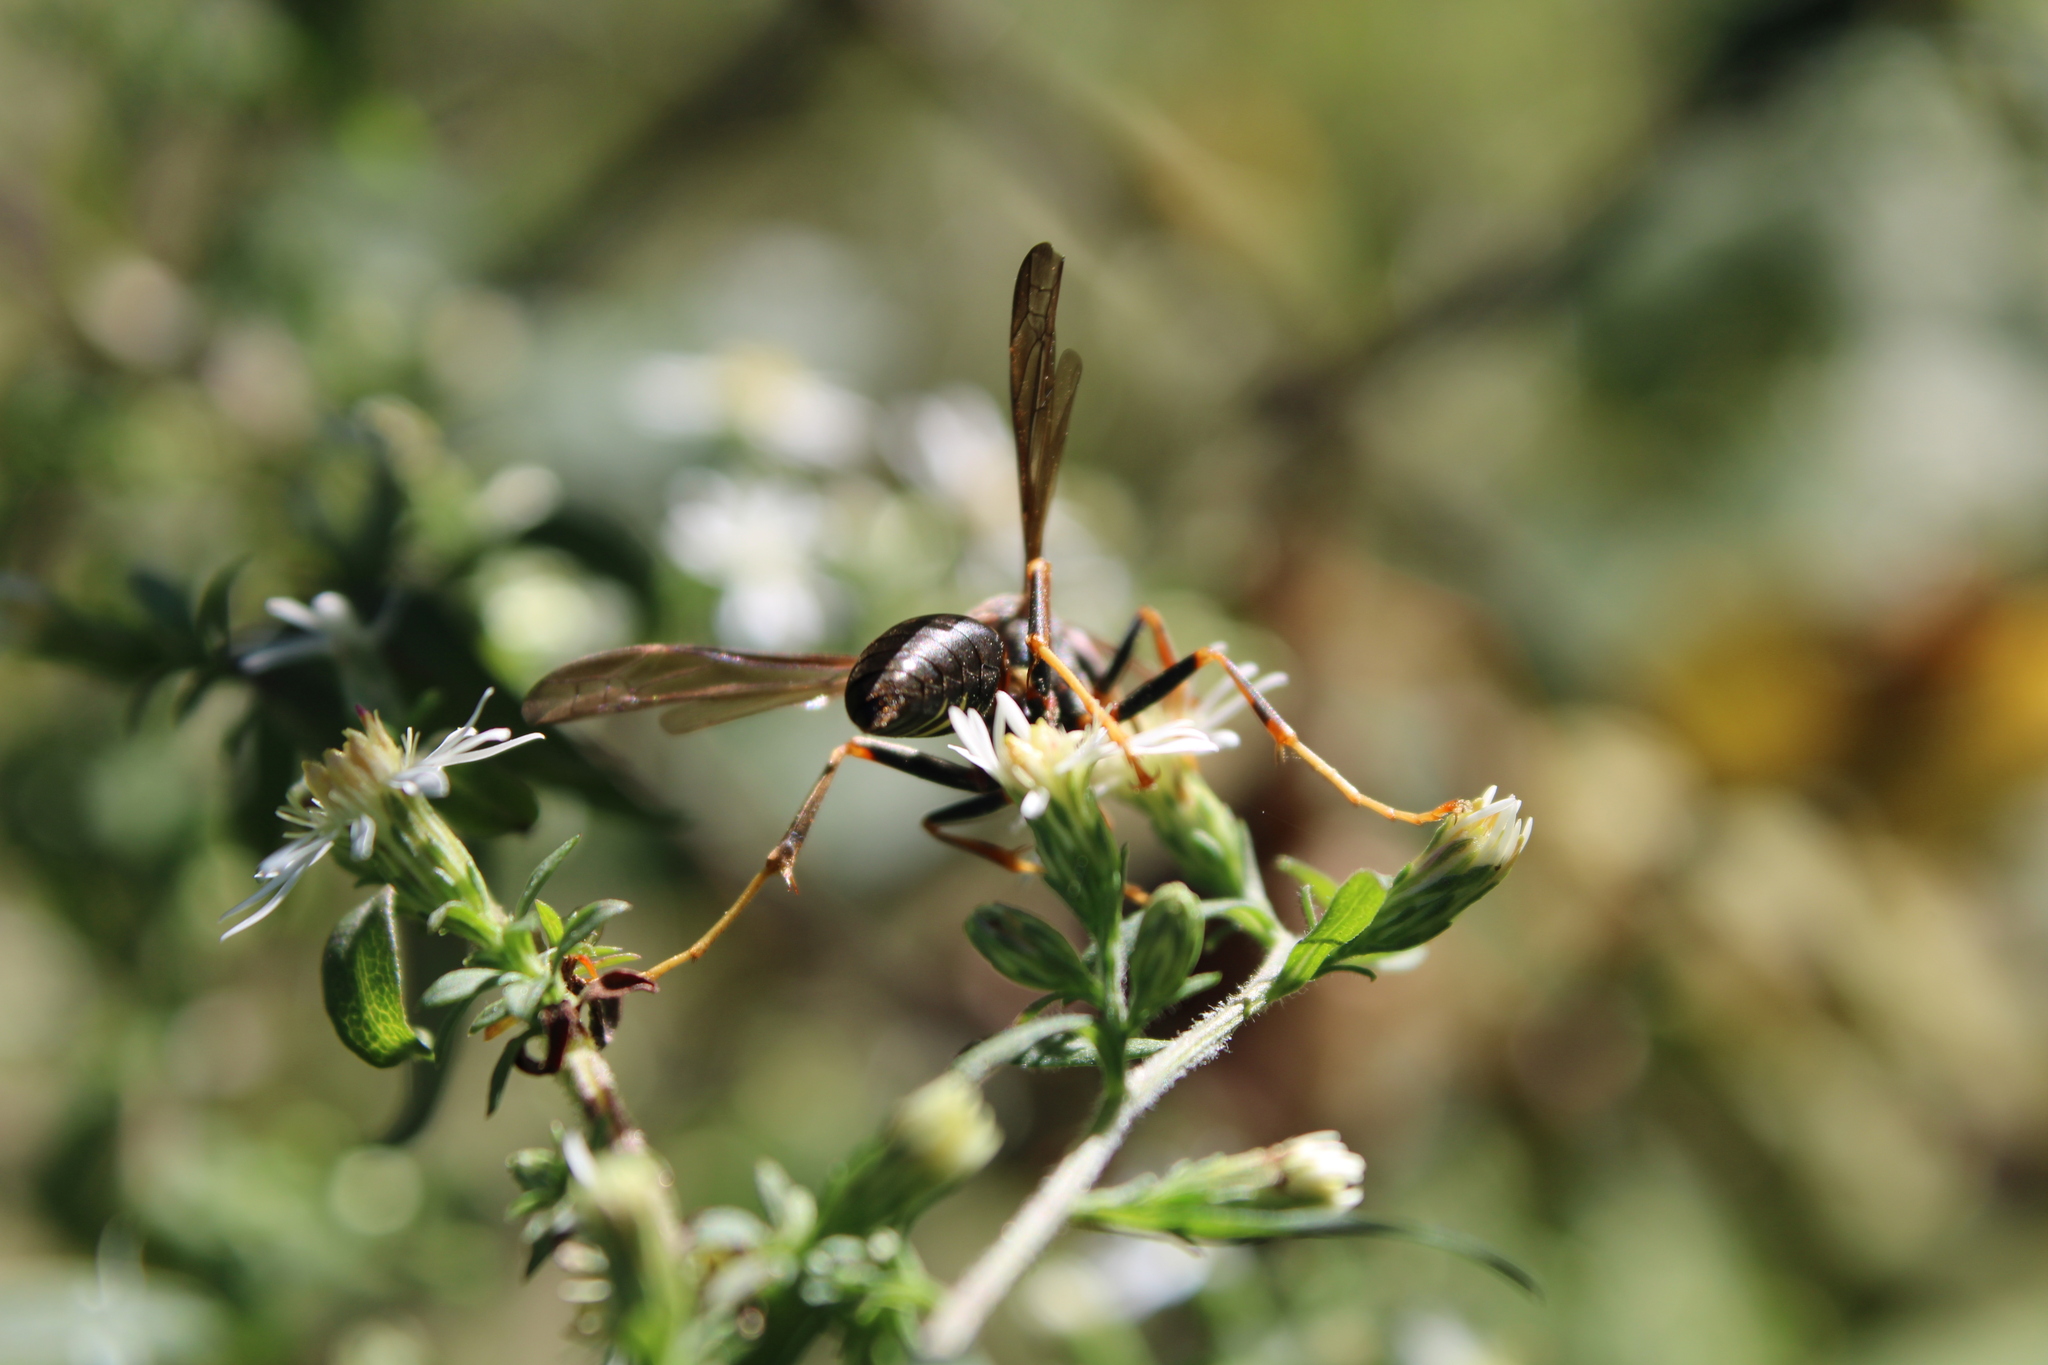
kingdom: Animalia
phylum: Arthropoda
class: Insecta
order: Hymenoptera
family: Eumenidae
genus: Polistes
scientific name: Polistes metricus
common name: Metric paper wasp
